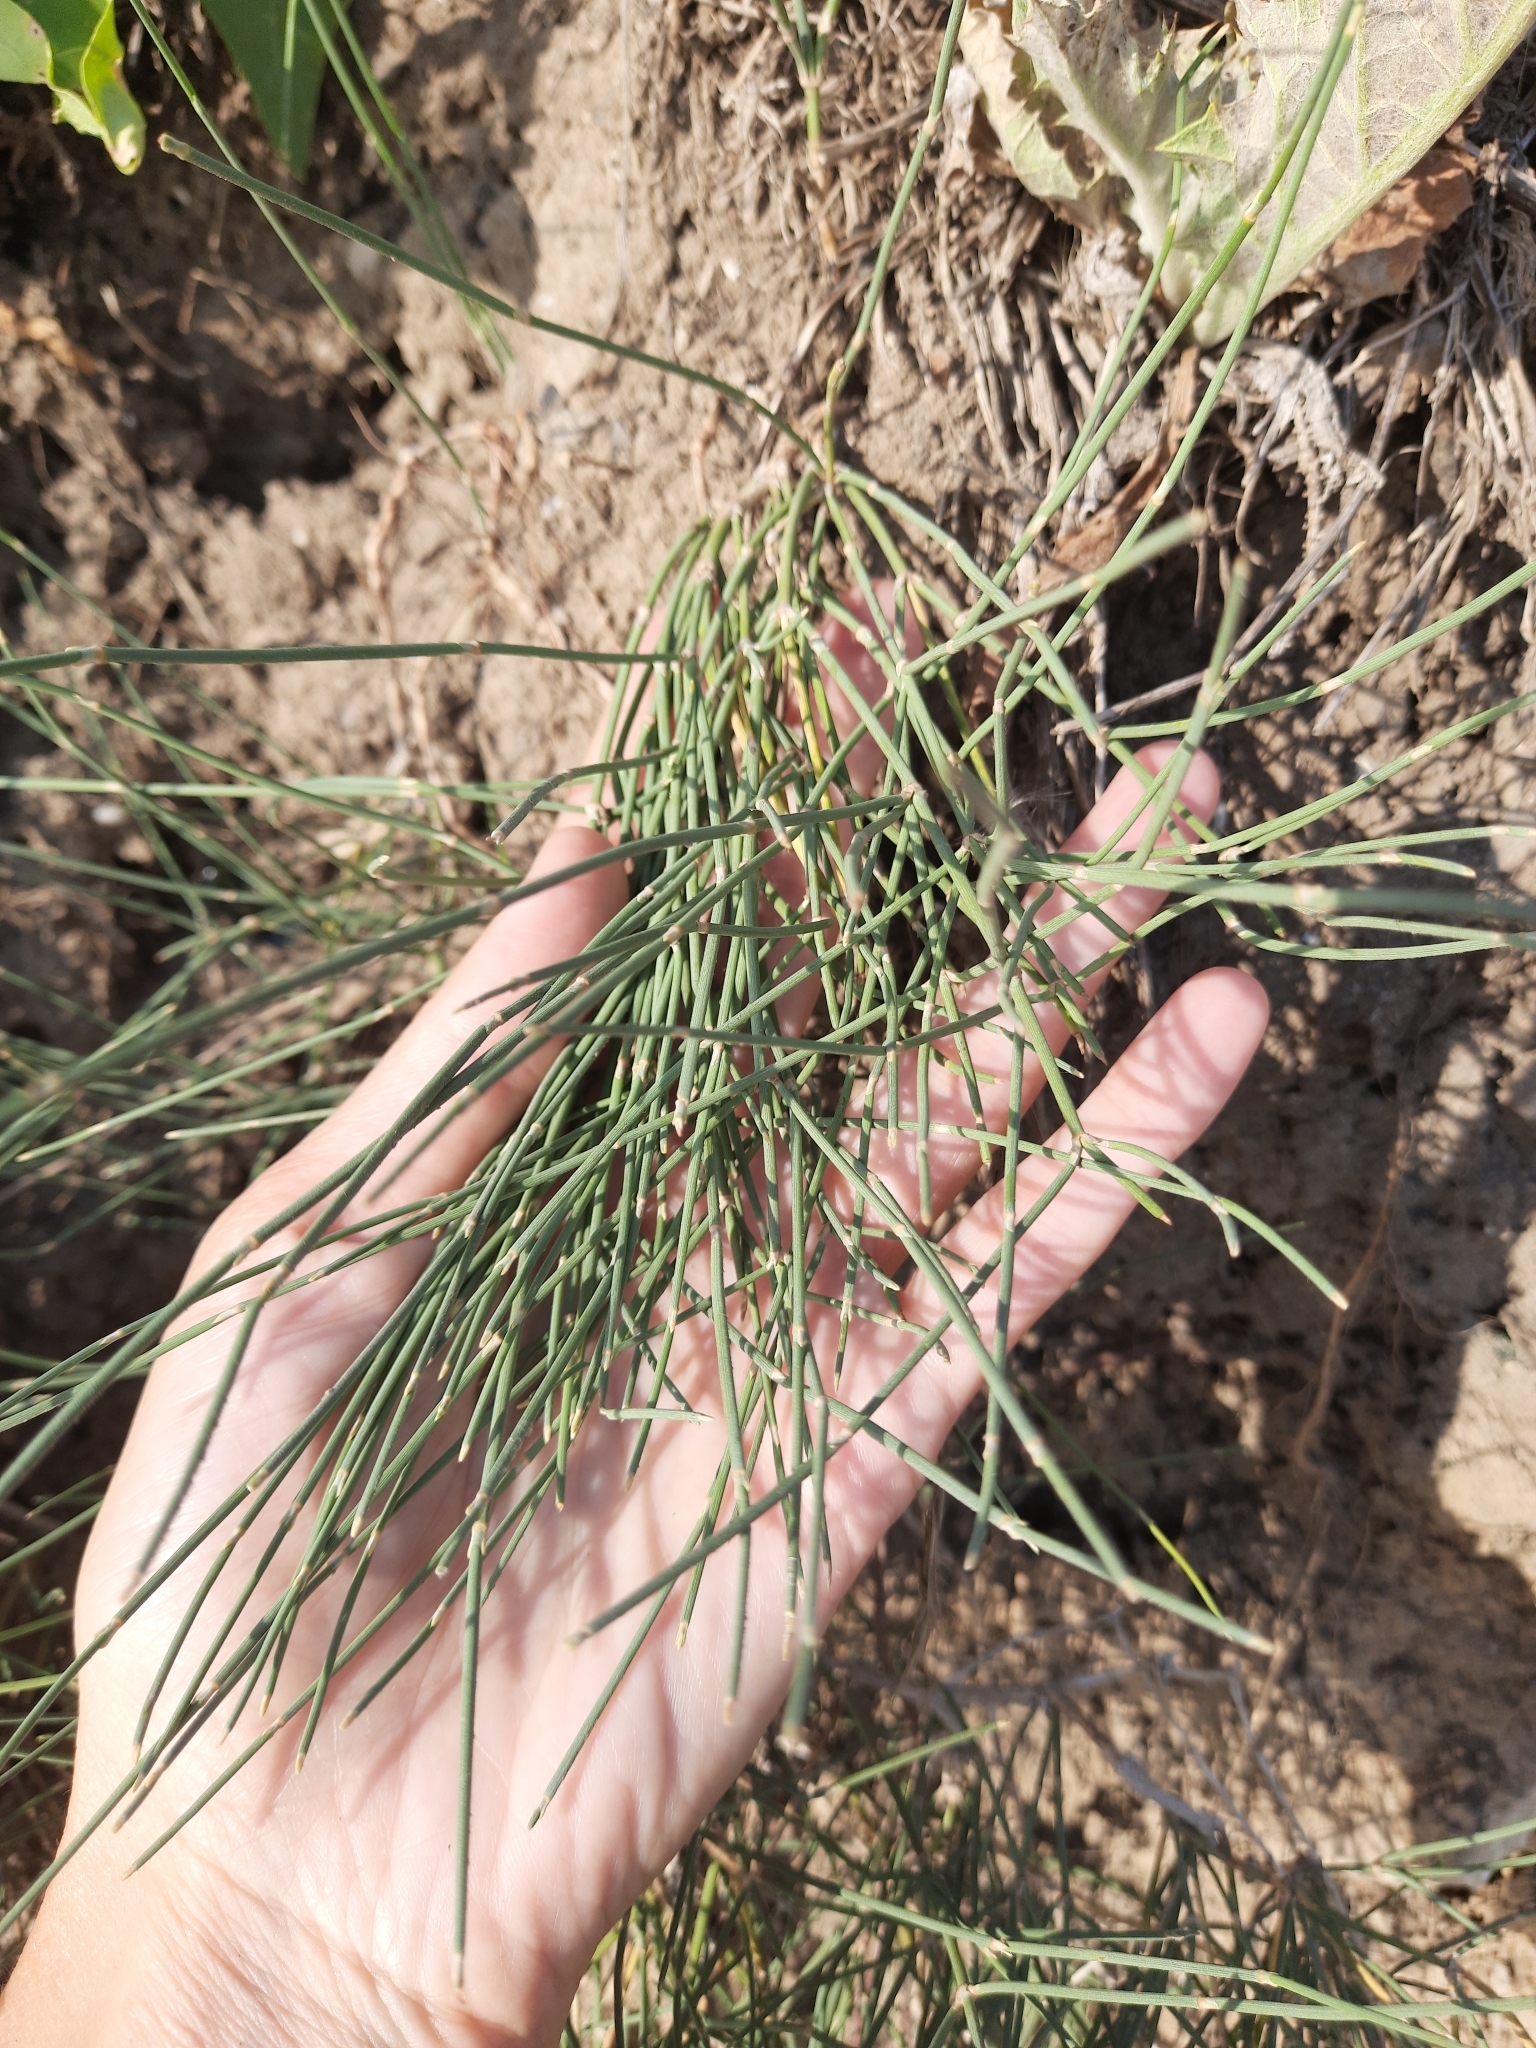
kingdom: Plantae
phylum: Tracheophyta
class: Gnetopsida
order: Ephedrales
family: Ephedraceae
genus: Ephedra
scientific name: Ephedra distachya
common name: Sea grape
